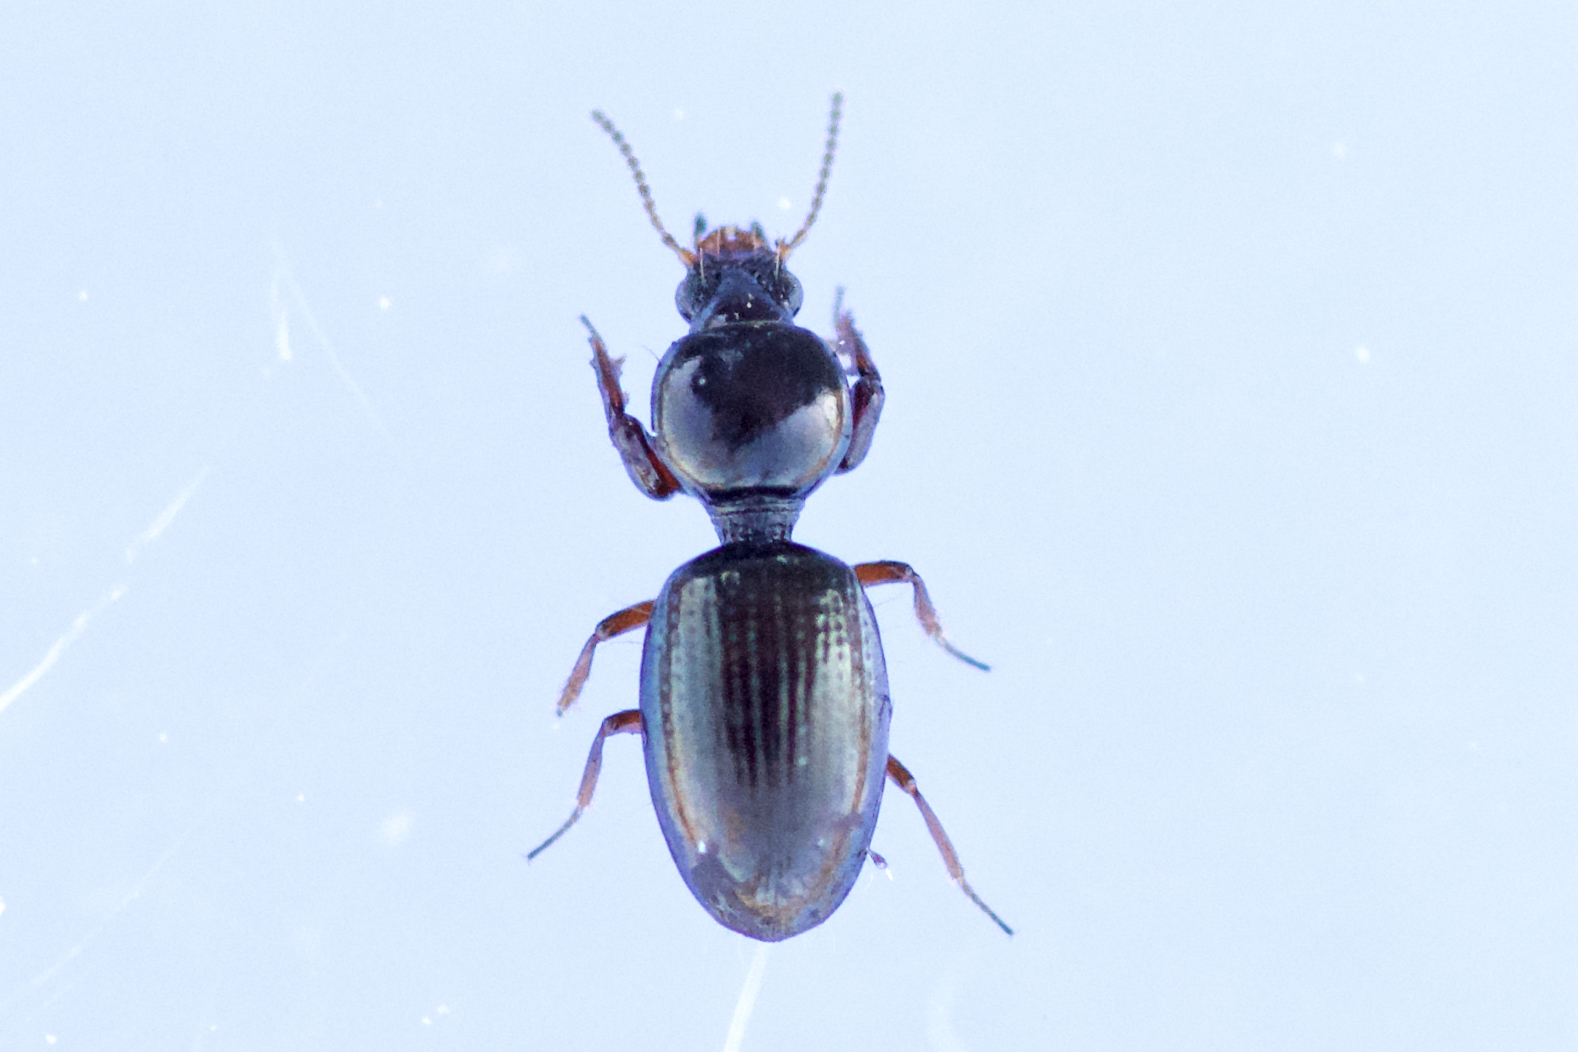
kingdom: Animalia
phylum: Arthropoda
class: Insecta
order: Coleoptera
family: Carabidae
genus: Dyschirius
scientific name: Dyschirius globulosus
